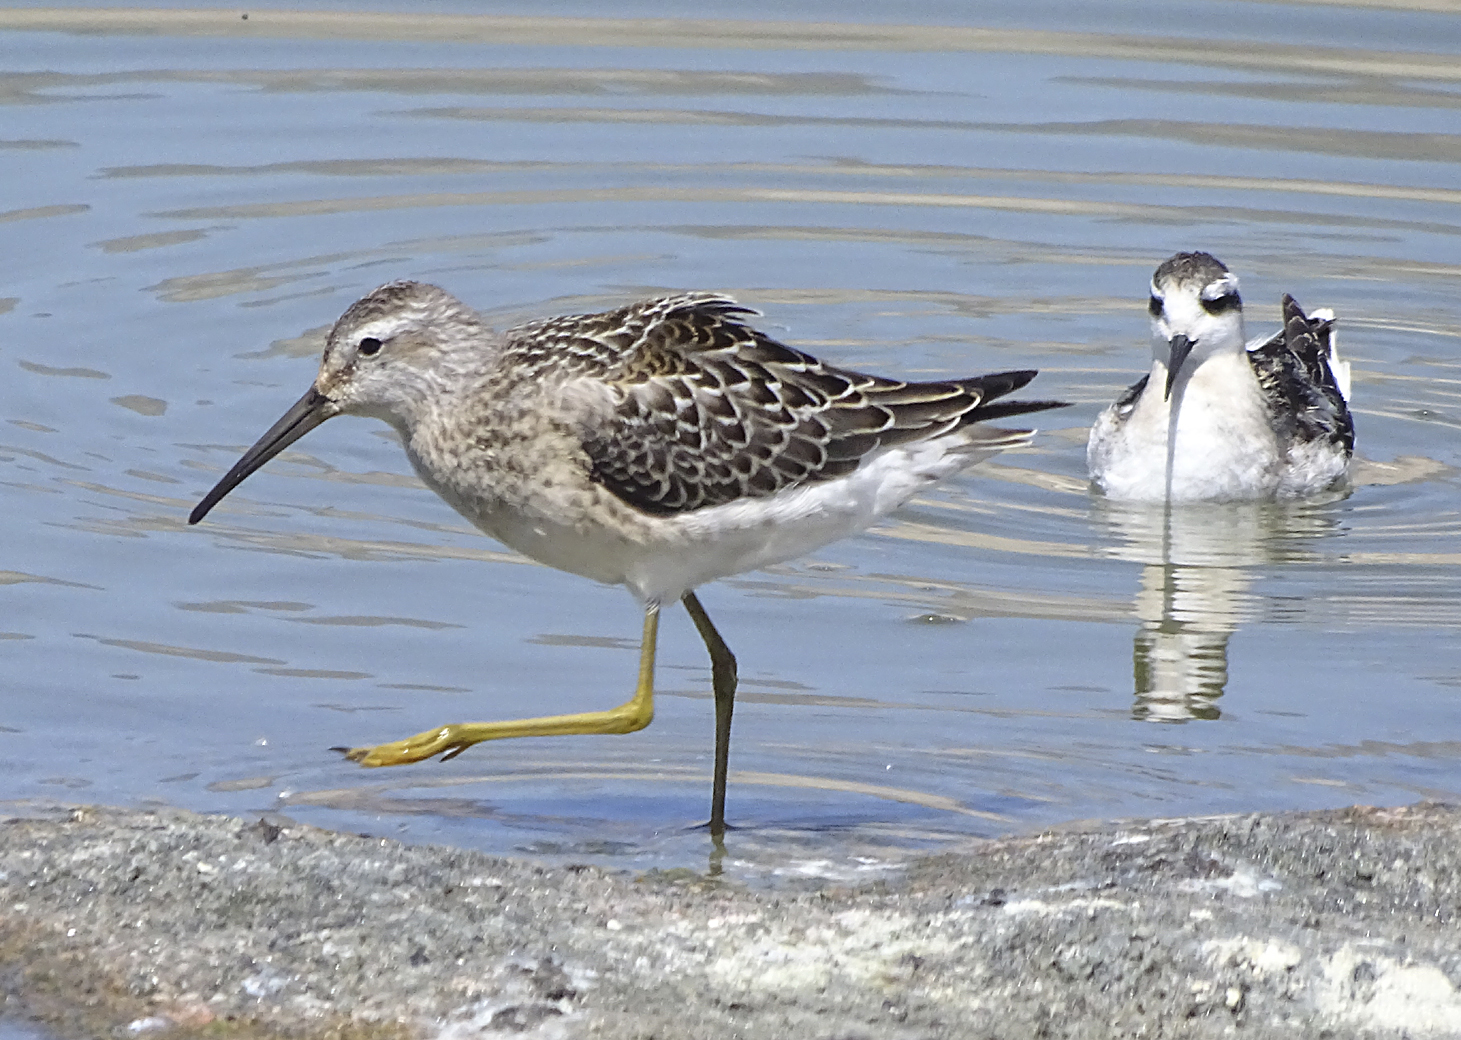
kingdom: Animalia
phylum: Chordata
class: Aves
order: Charadriiformes
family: Scolopacidae
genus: Calidris
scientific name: Calidris himantopus
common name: Stilt sandpiper
